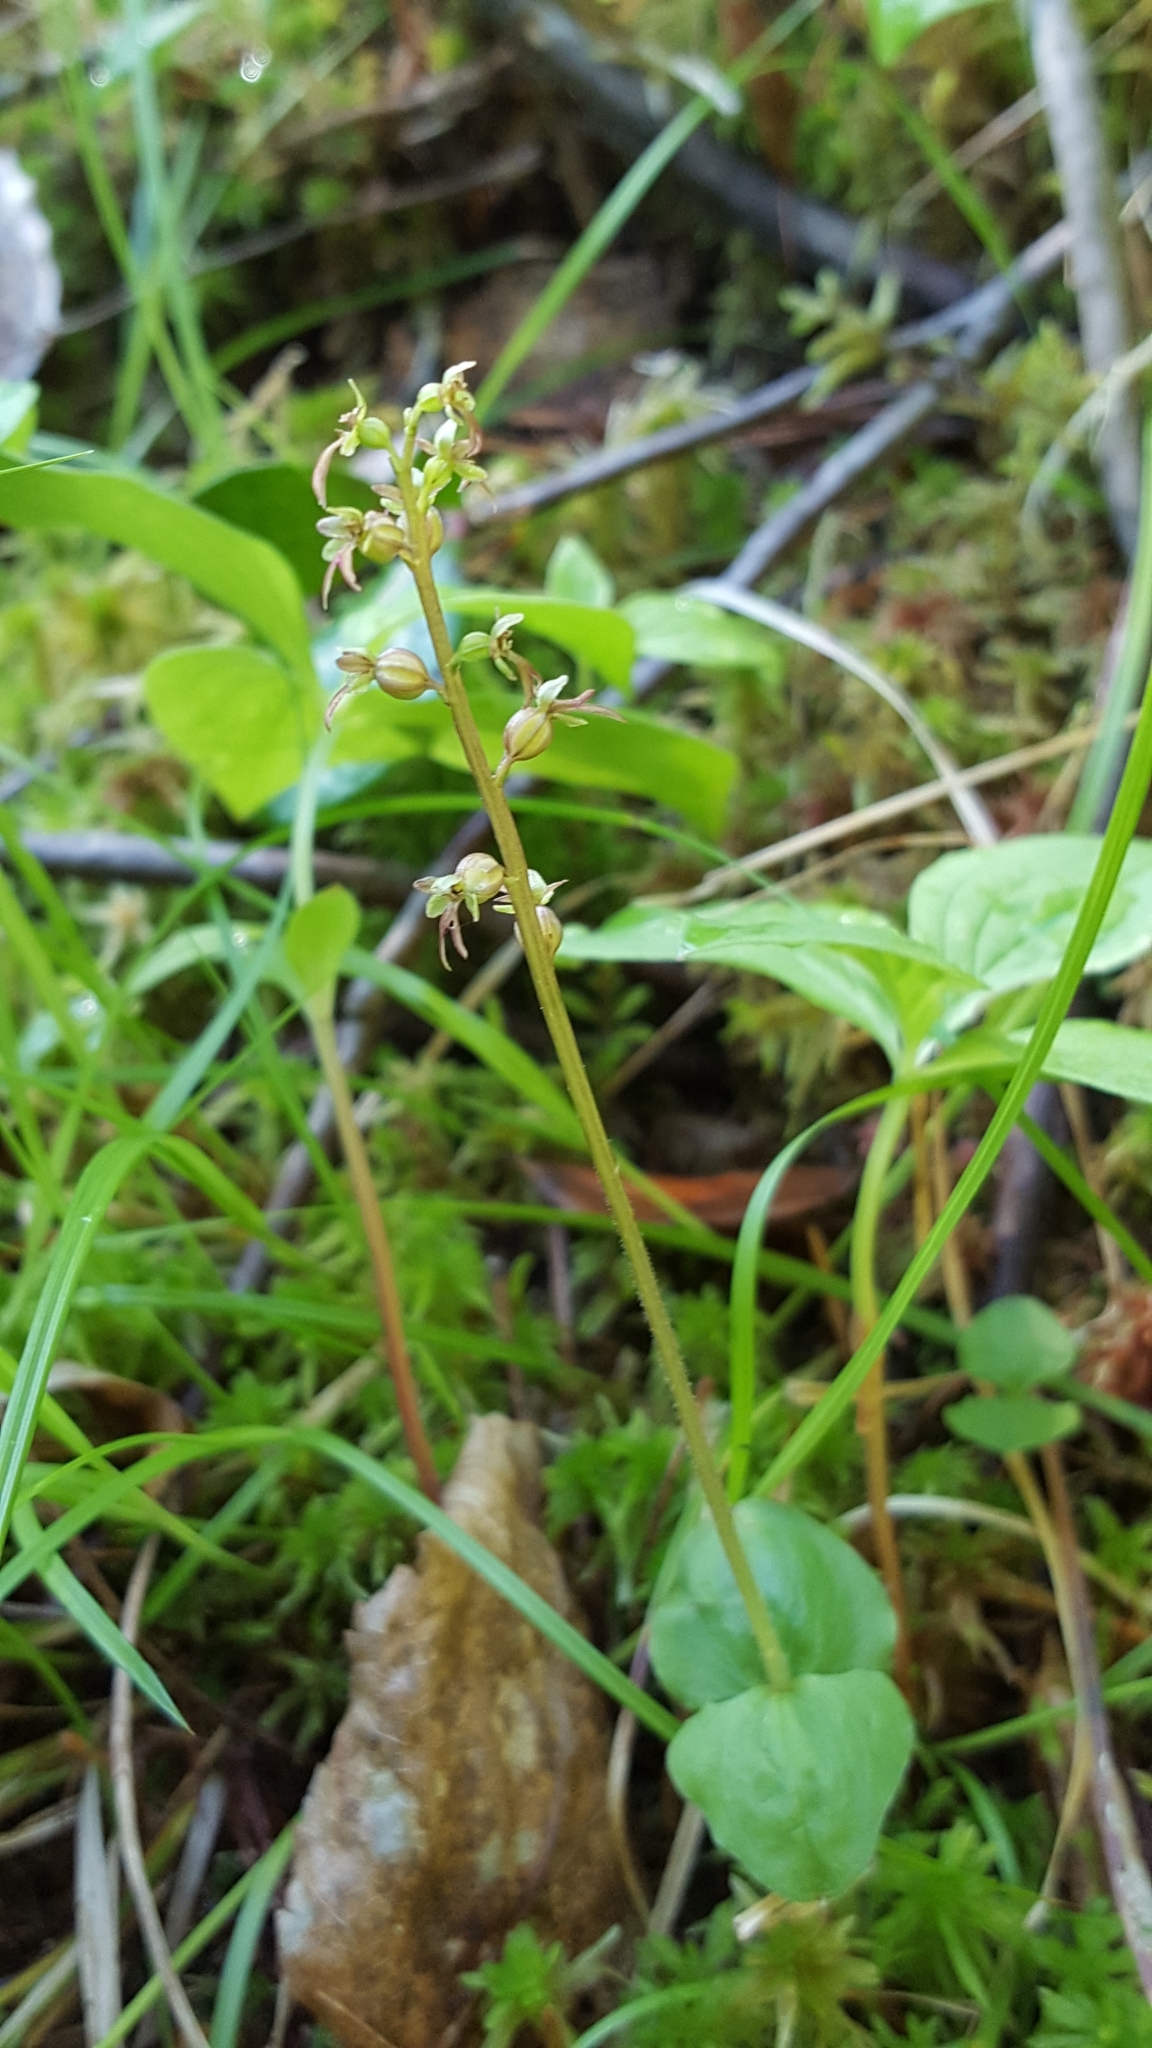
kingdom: Plantae
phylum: Tracheophyta
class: Liliopsida
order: Asparagales
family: Orchidaceae
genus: Neottia
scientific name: Neottia cordata
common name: Lesser twayblade
